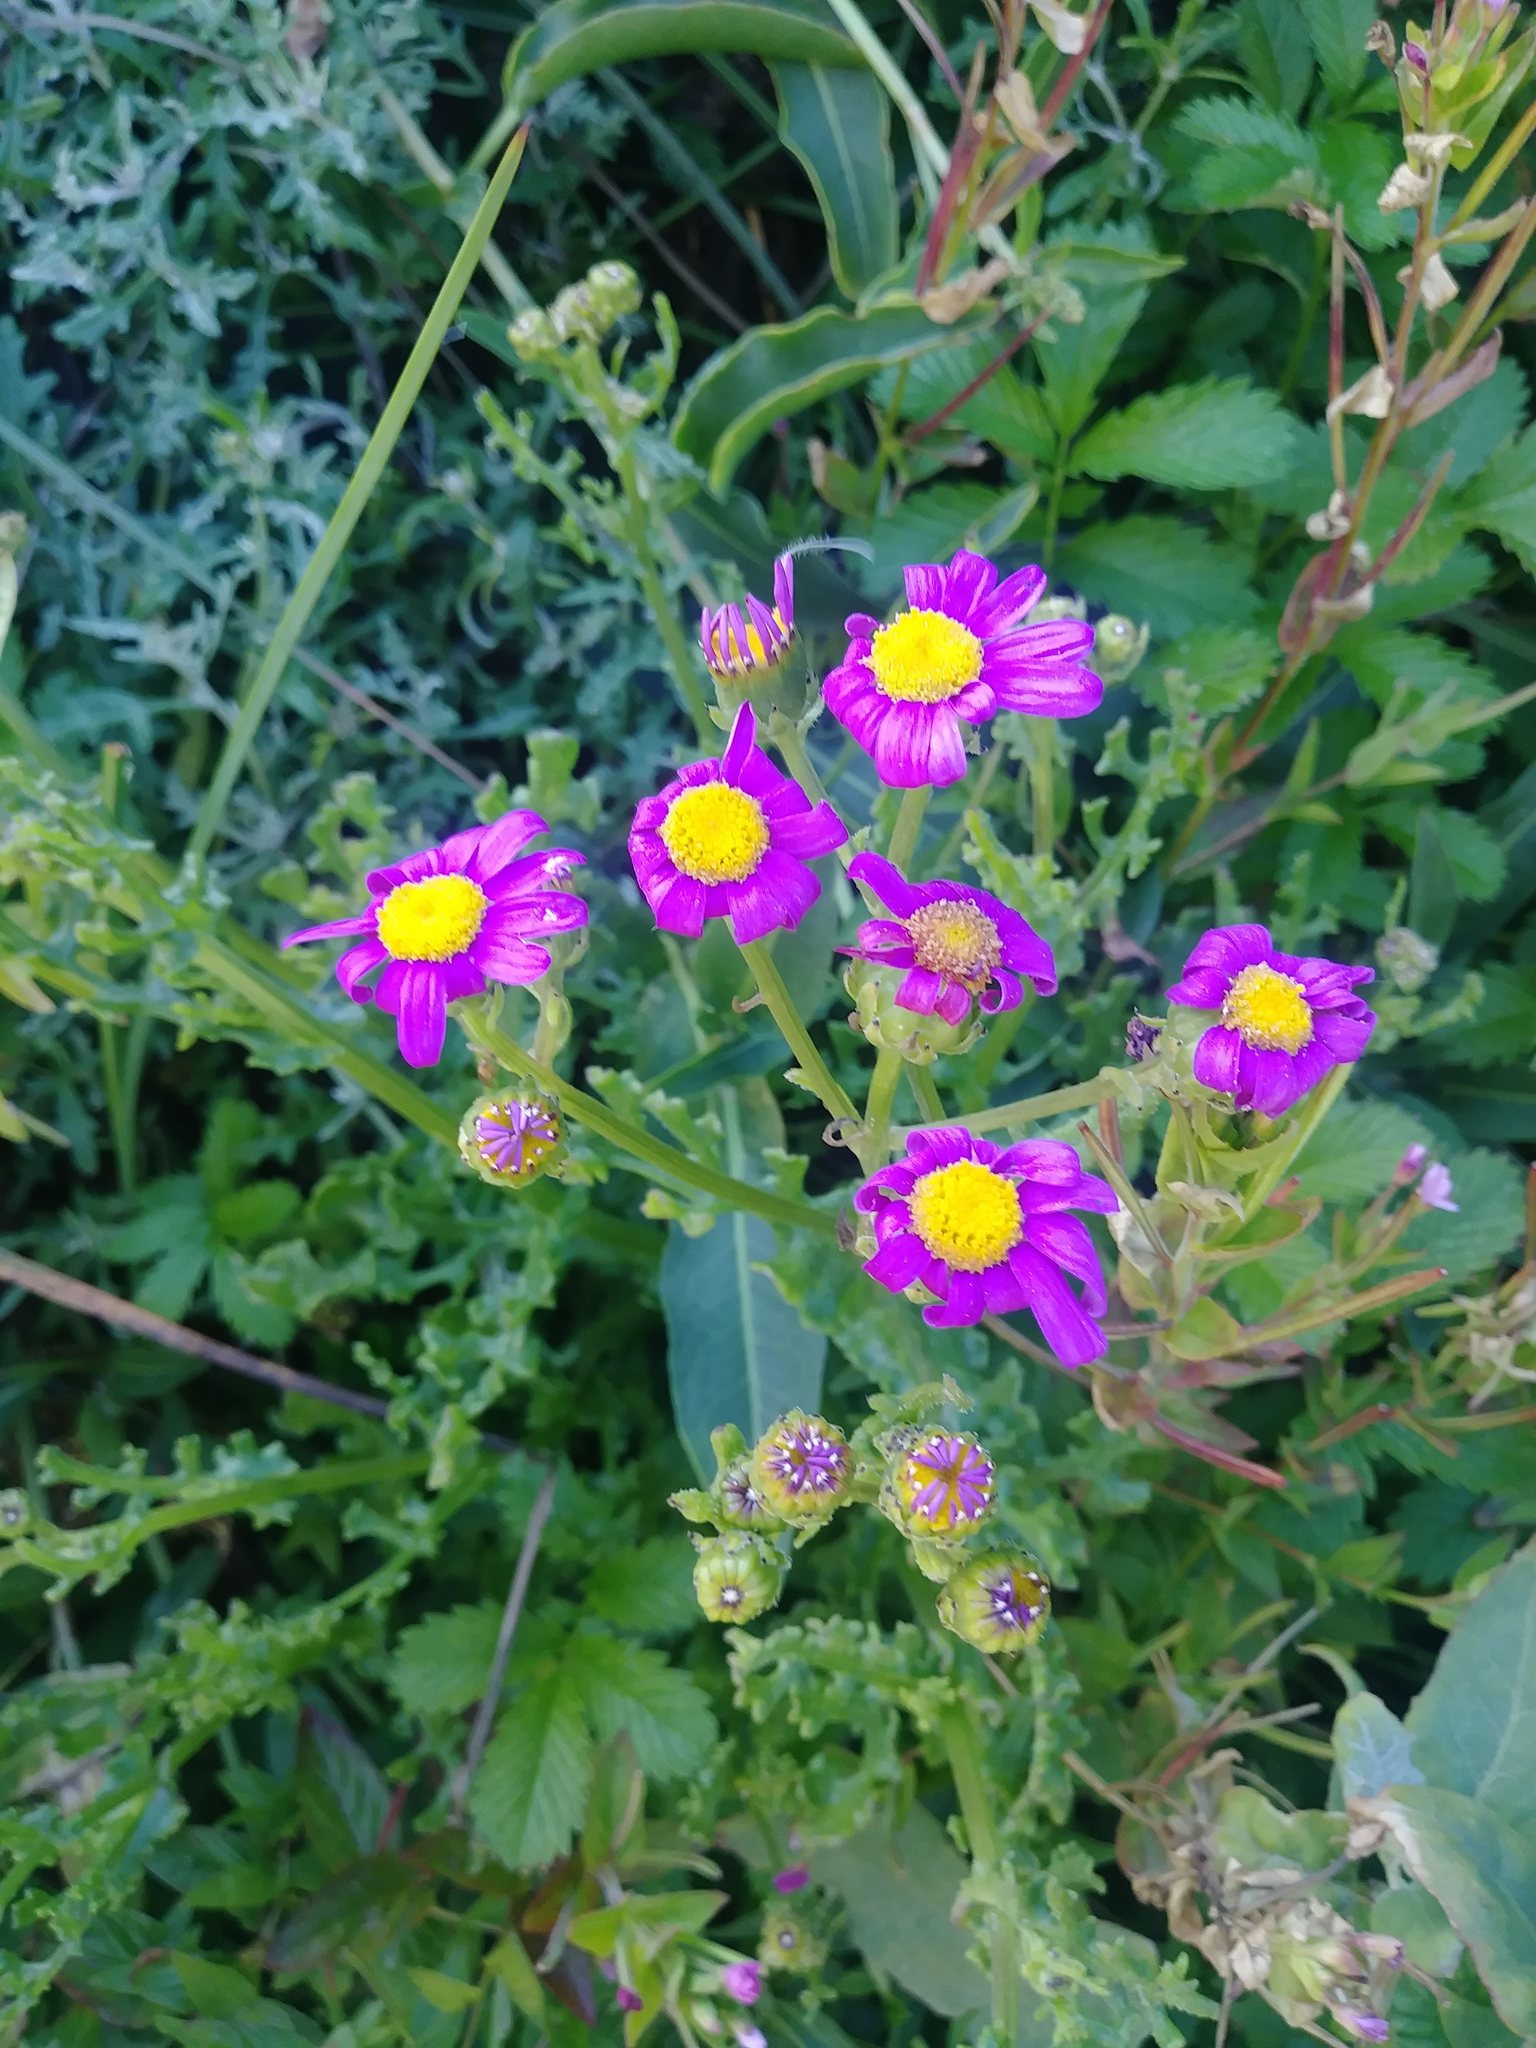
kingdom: Plantae
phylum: Tracheophyta
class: Magnoliopsida
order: Asterales
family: Asteraceae
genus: Senecio
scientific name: Senecio elegans
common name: Purple groundsel
